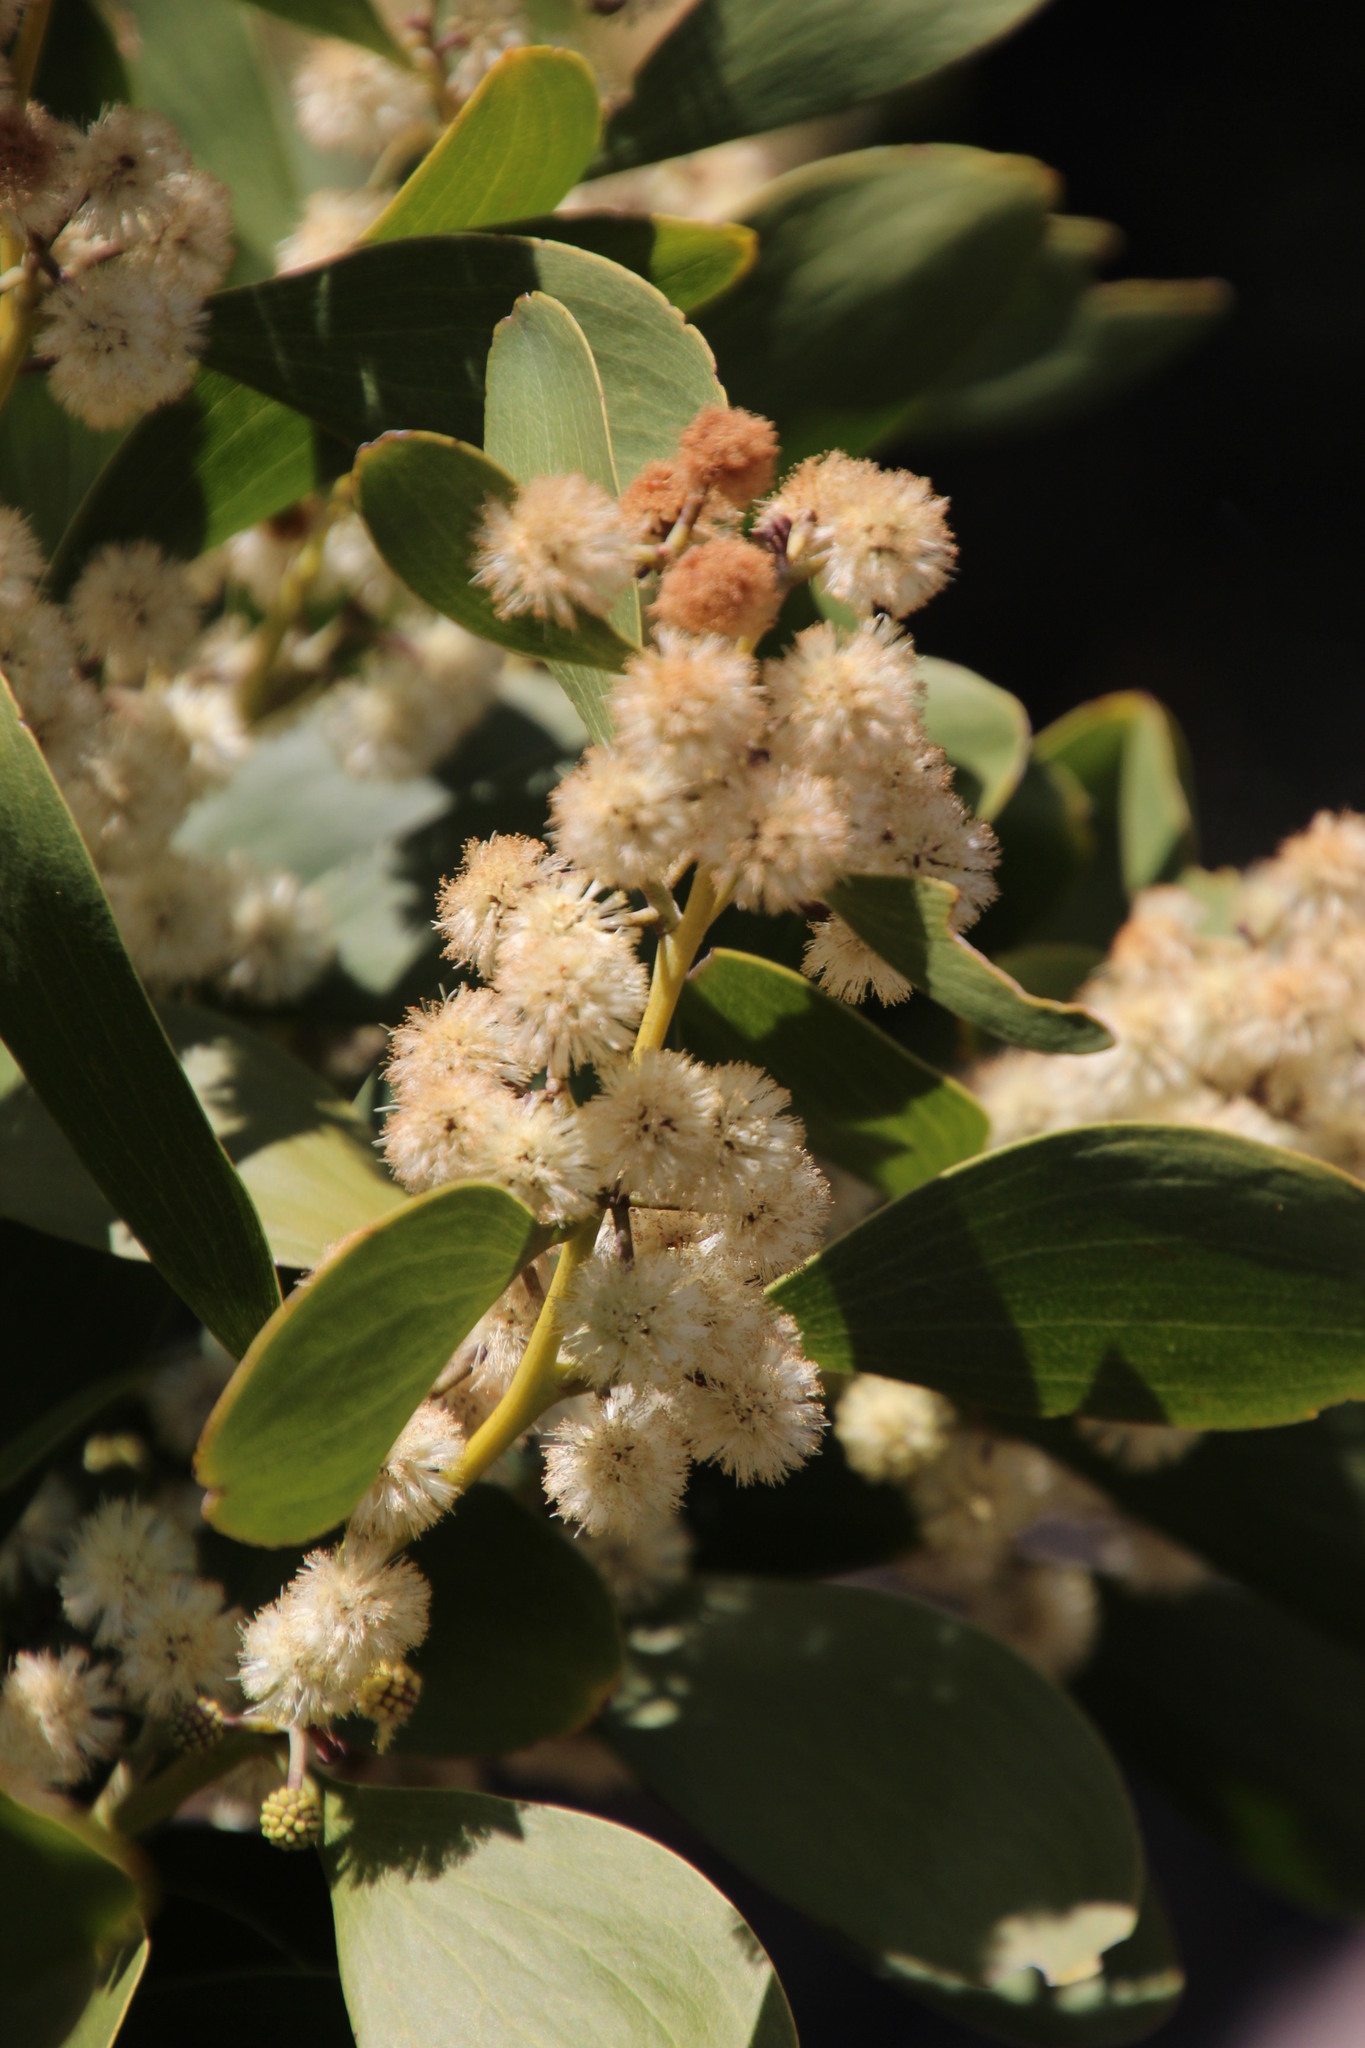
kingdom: Plantae
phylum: Tracheophyta
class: Magnoliopsida
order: Fabales
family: Fabaceae
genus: Acacia
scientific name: Acacia melanoxylon
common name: Blackwood
